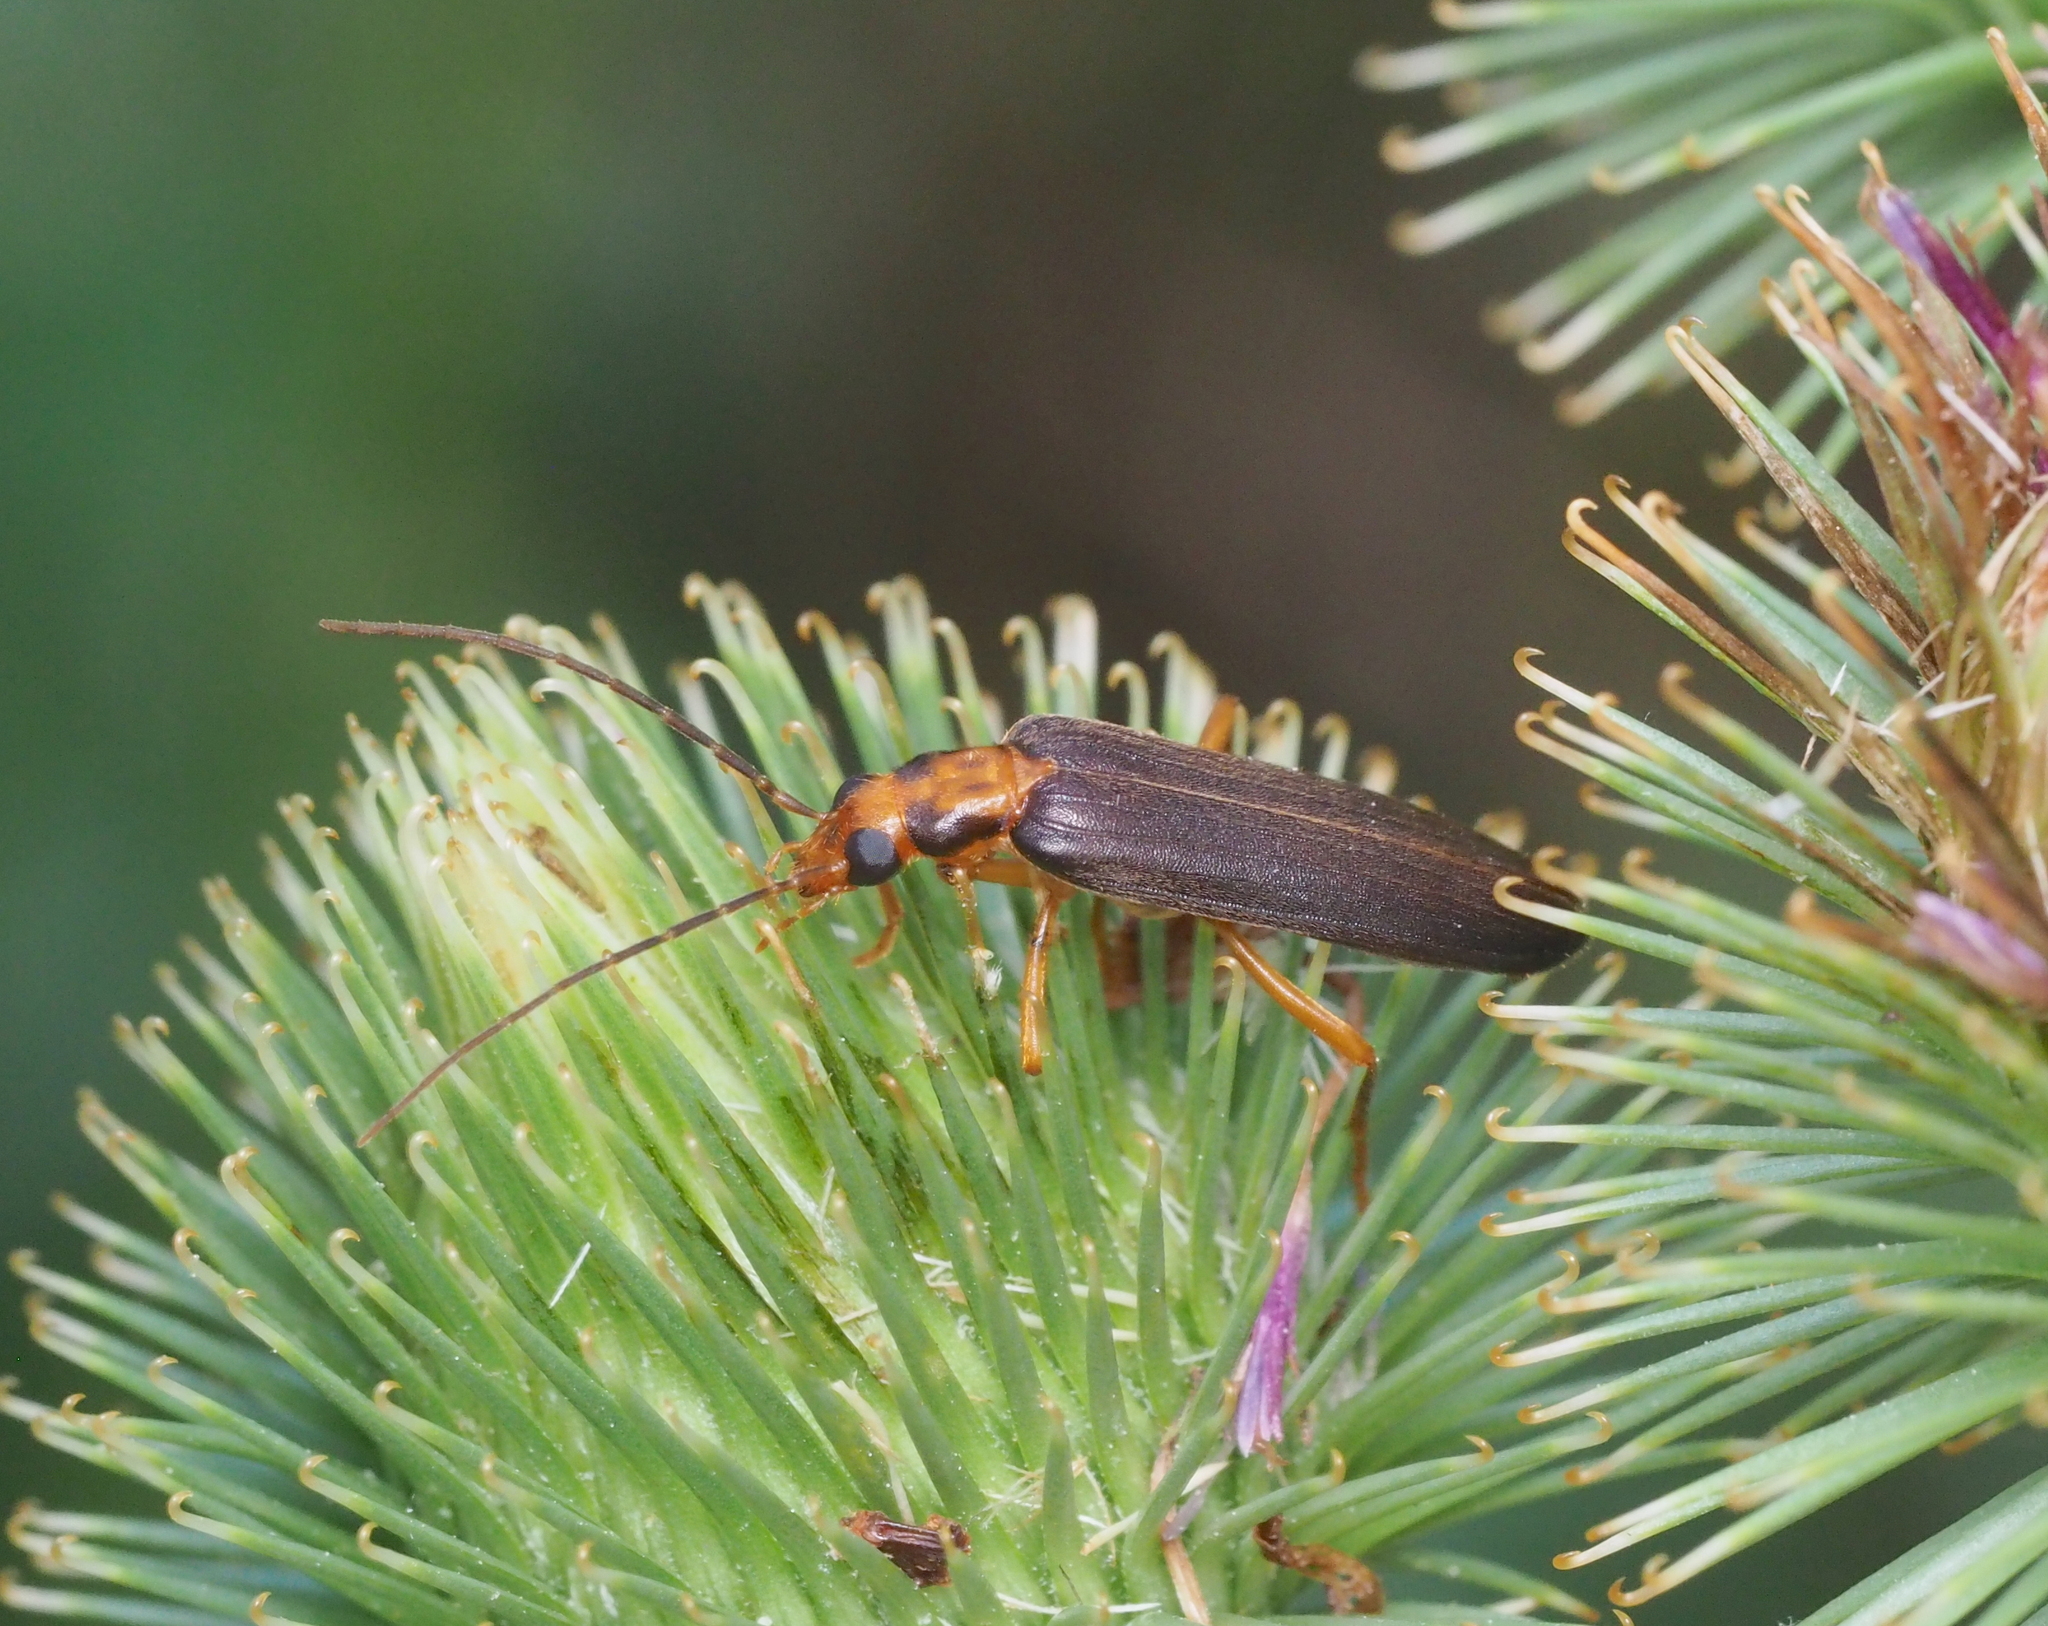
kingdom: Animalia
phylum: Arthropoda
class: Insecta
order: Coleoptera
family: Oedemeridae
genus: Nacerdes
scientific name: Nacerdes carniolica
